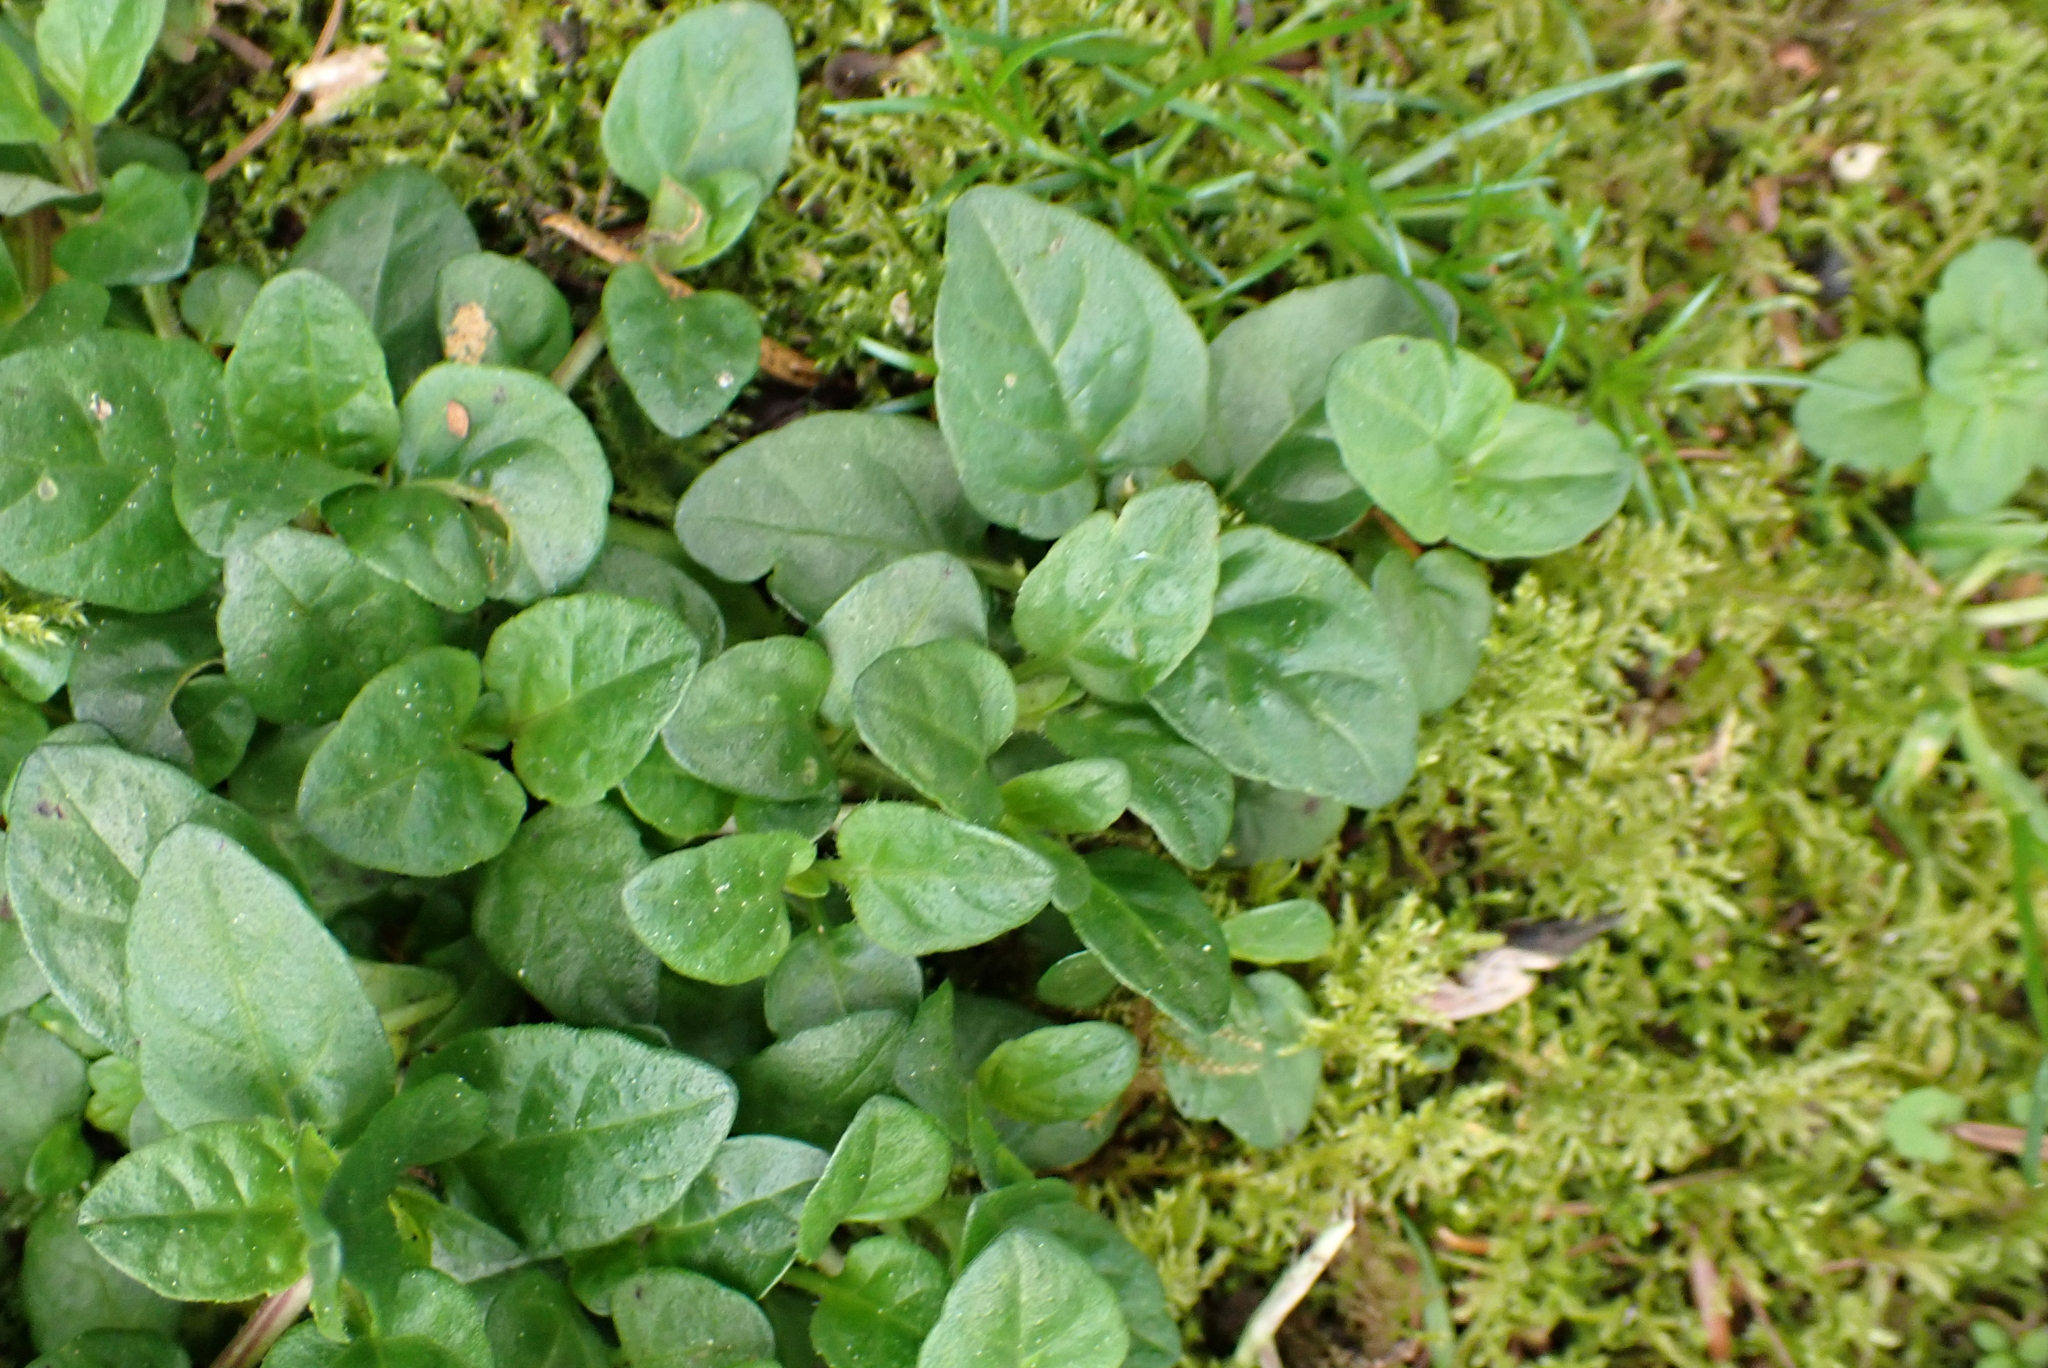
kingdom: Plantae
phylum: Tracheophyta
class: Magnoliopsida
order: Lamiales
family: Lamiaceae
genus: Prunella
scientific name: Prunella vulgaris
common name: Heal-all
